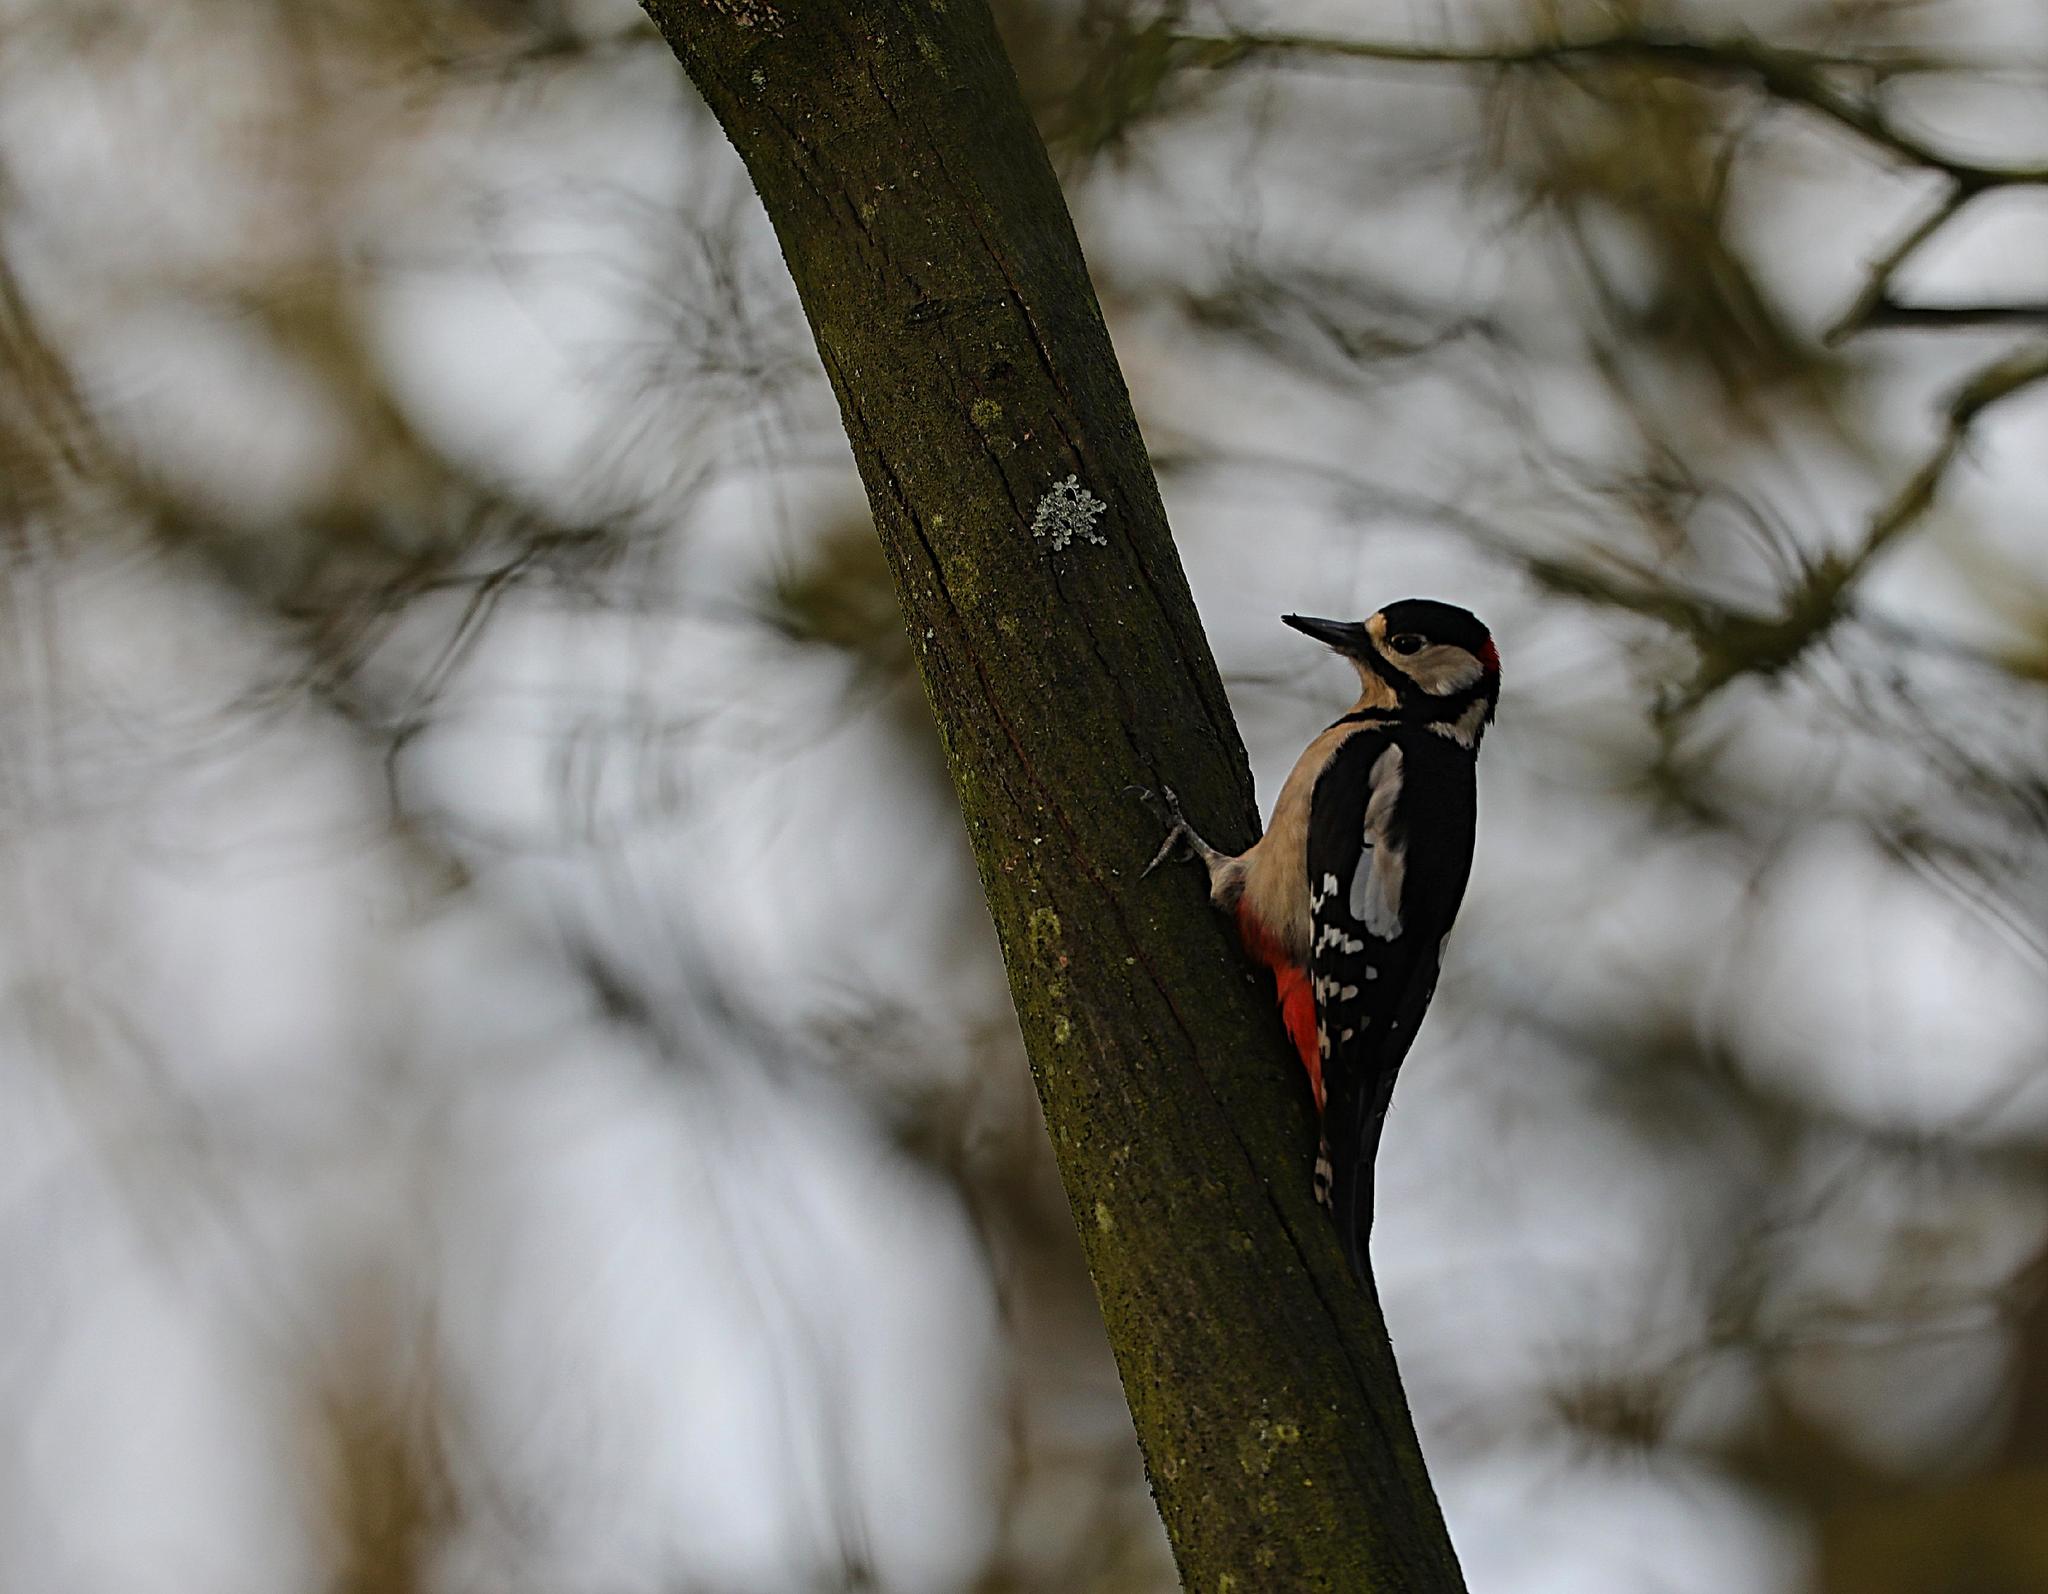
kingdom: Animalia
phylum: Chordata
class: Aves
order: Piciformes
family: Picidae
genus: Dendrocopos
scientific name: Dendrocopos major
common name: Great spotted woodpecker
